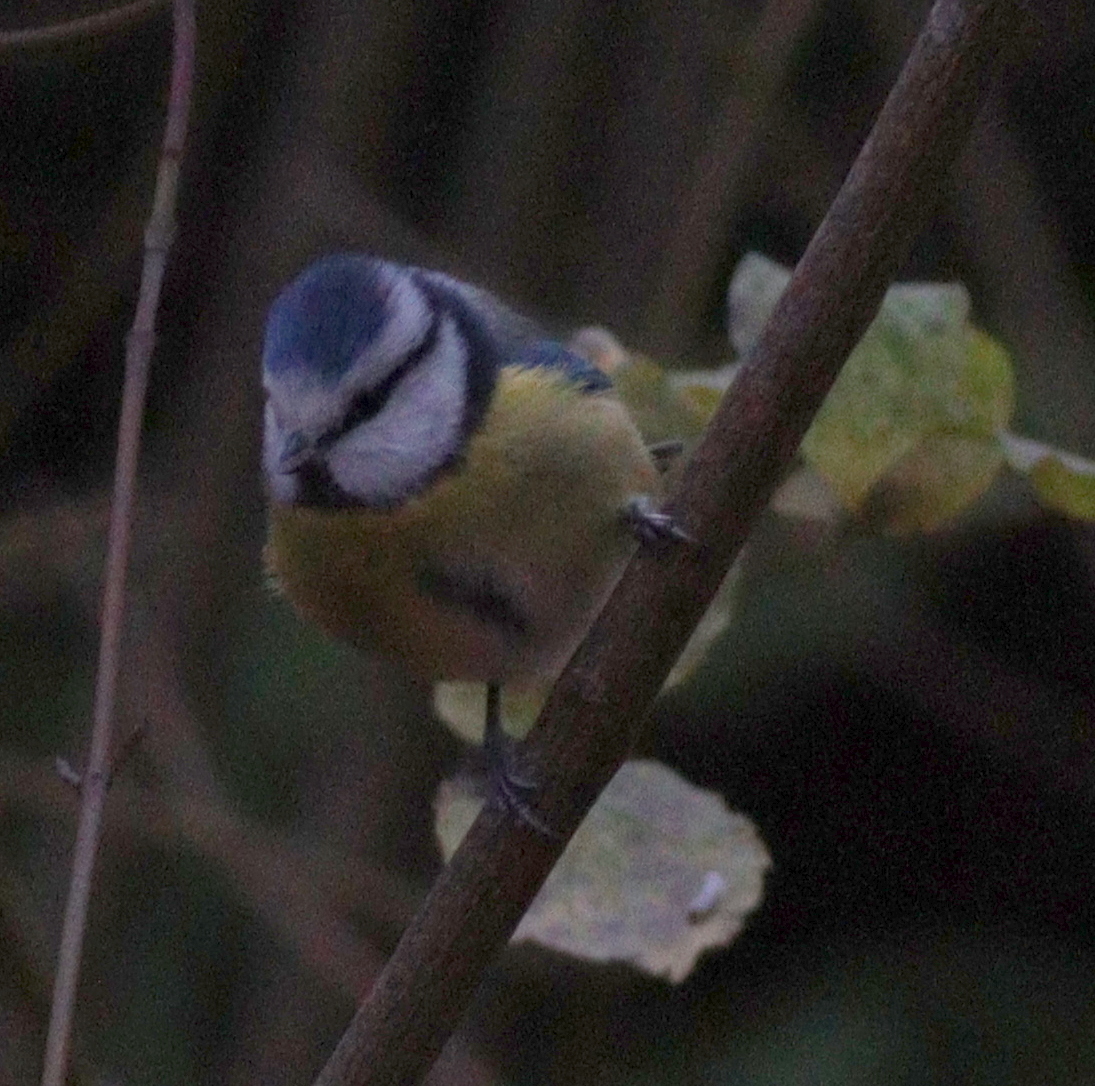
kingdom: Animalia
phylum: Chordata
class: Aves
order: Passeriformes
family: Paridae
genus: Cyanistes
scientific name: Cyanistes caeruleus
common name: Eurasian blue tit
